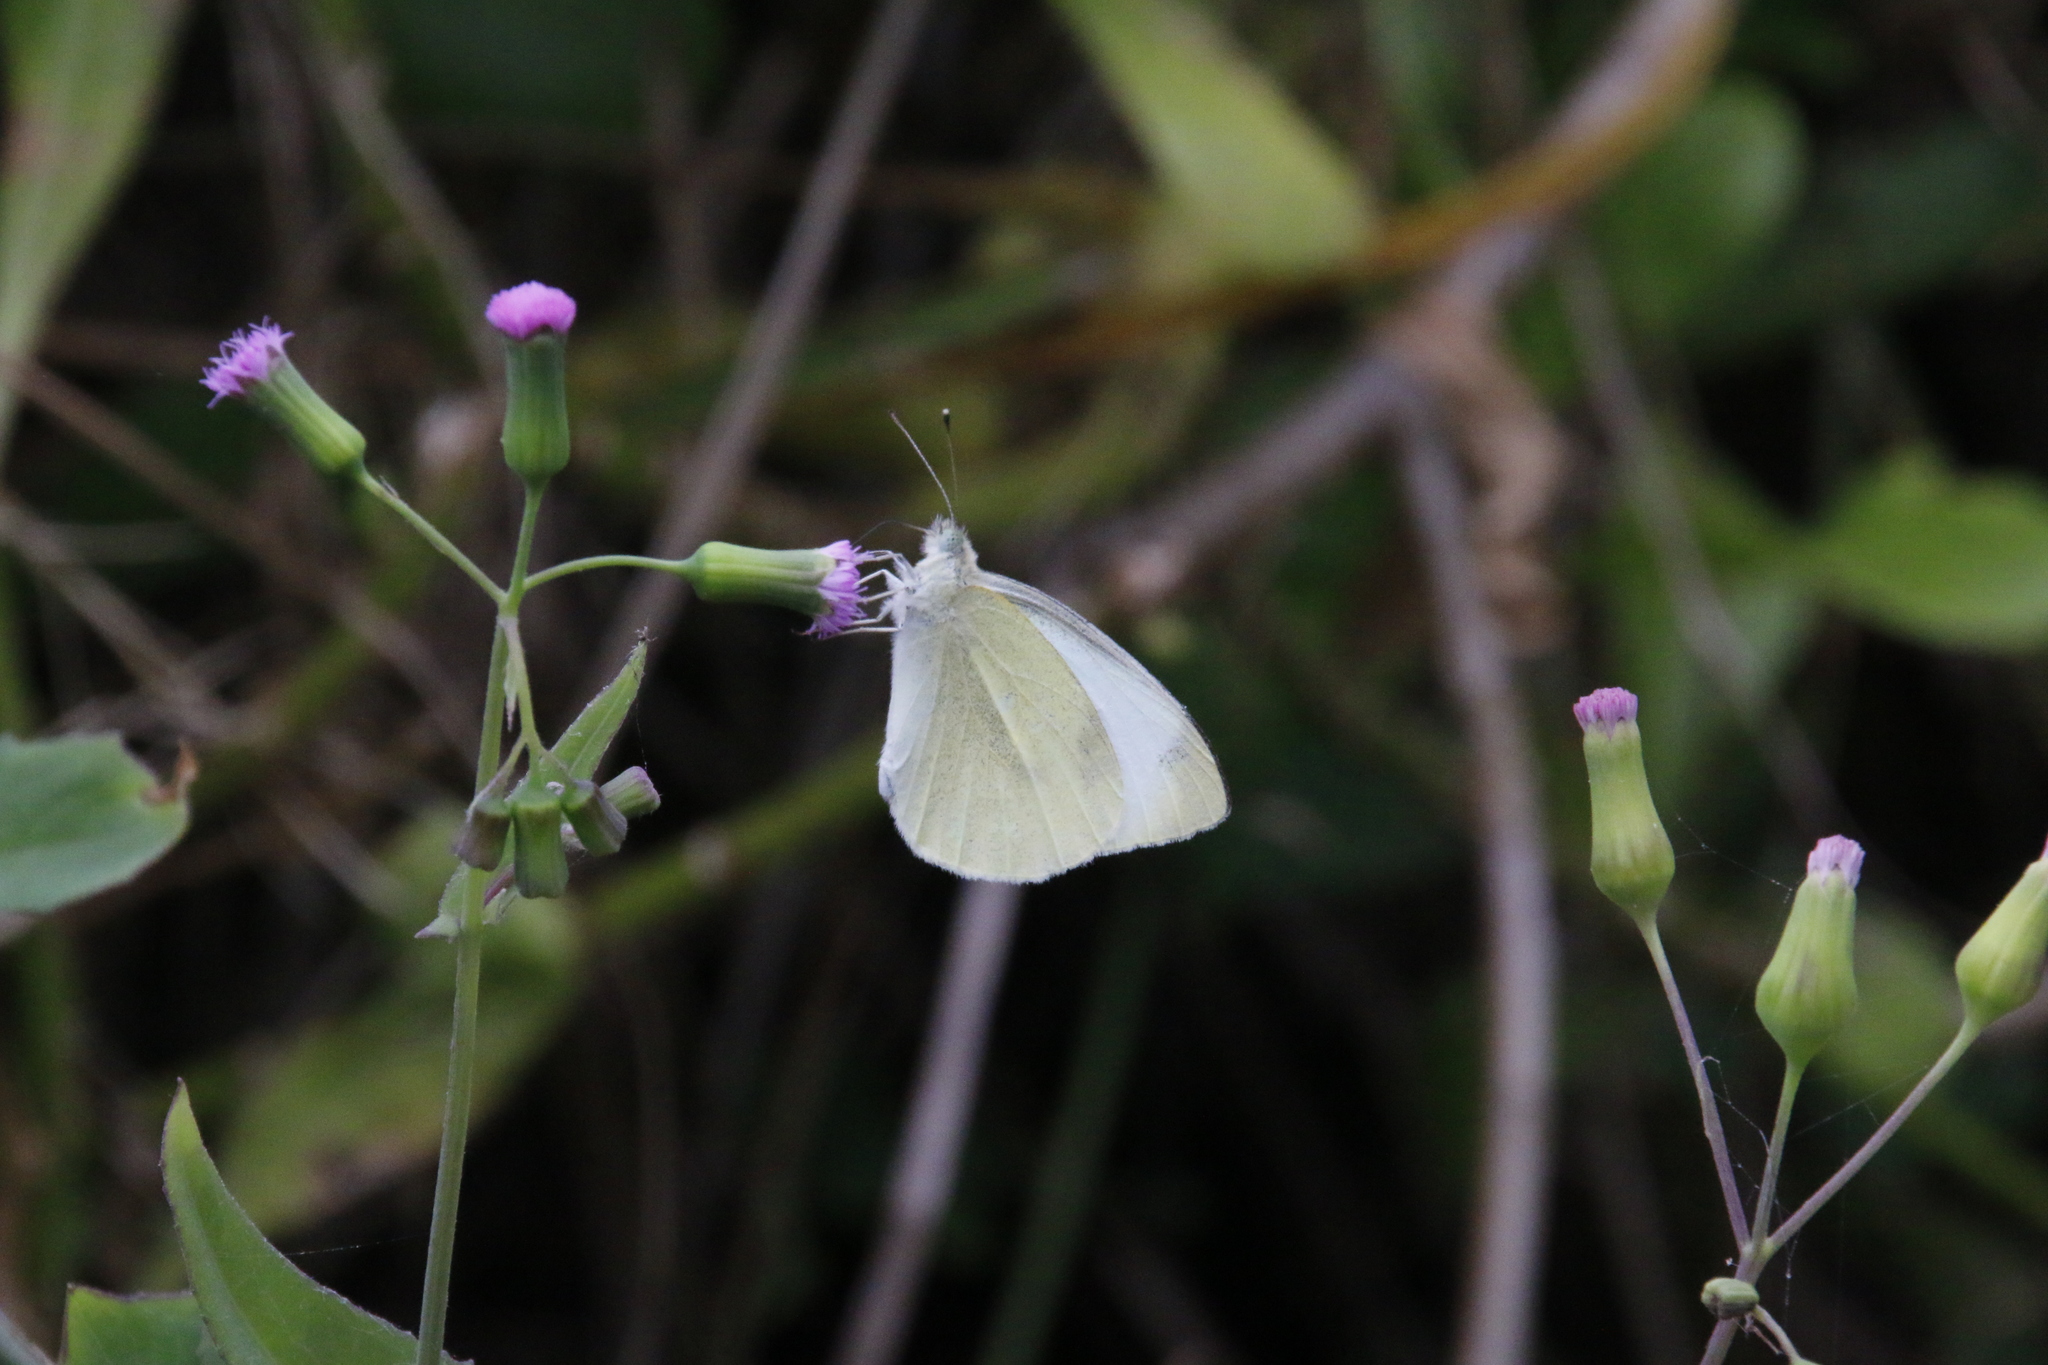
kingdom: Animalia
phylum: Arthropoda
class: Insecta
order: Lepidoptera
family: Pieridae
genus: Pieris
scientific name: Pieris rapae
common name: Small white
